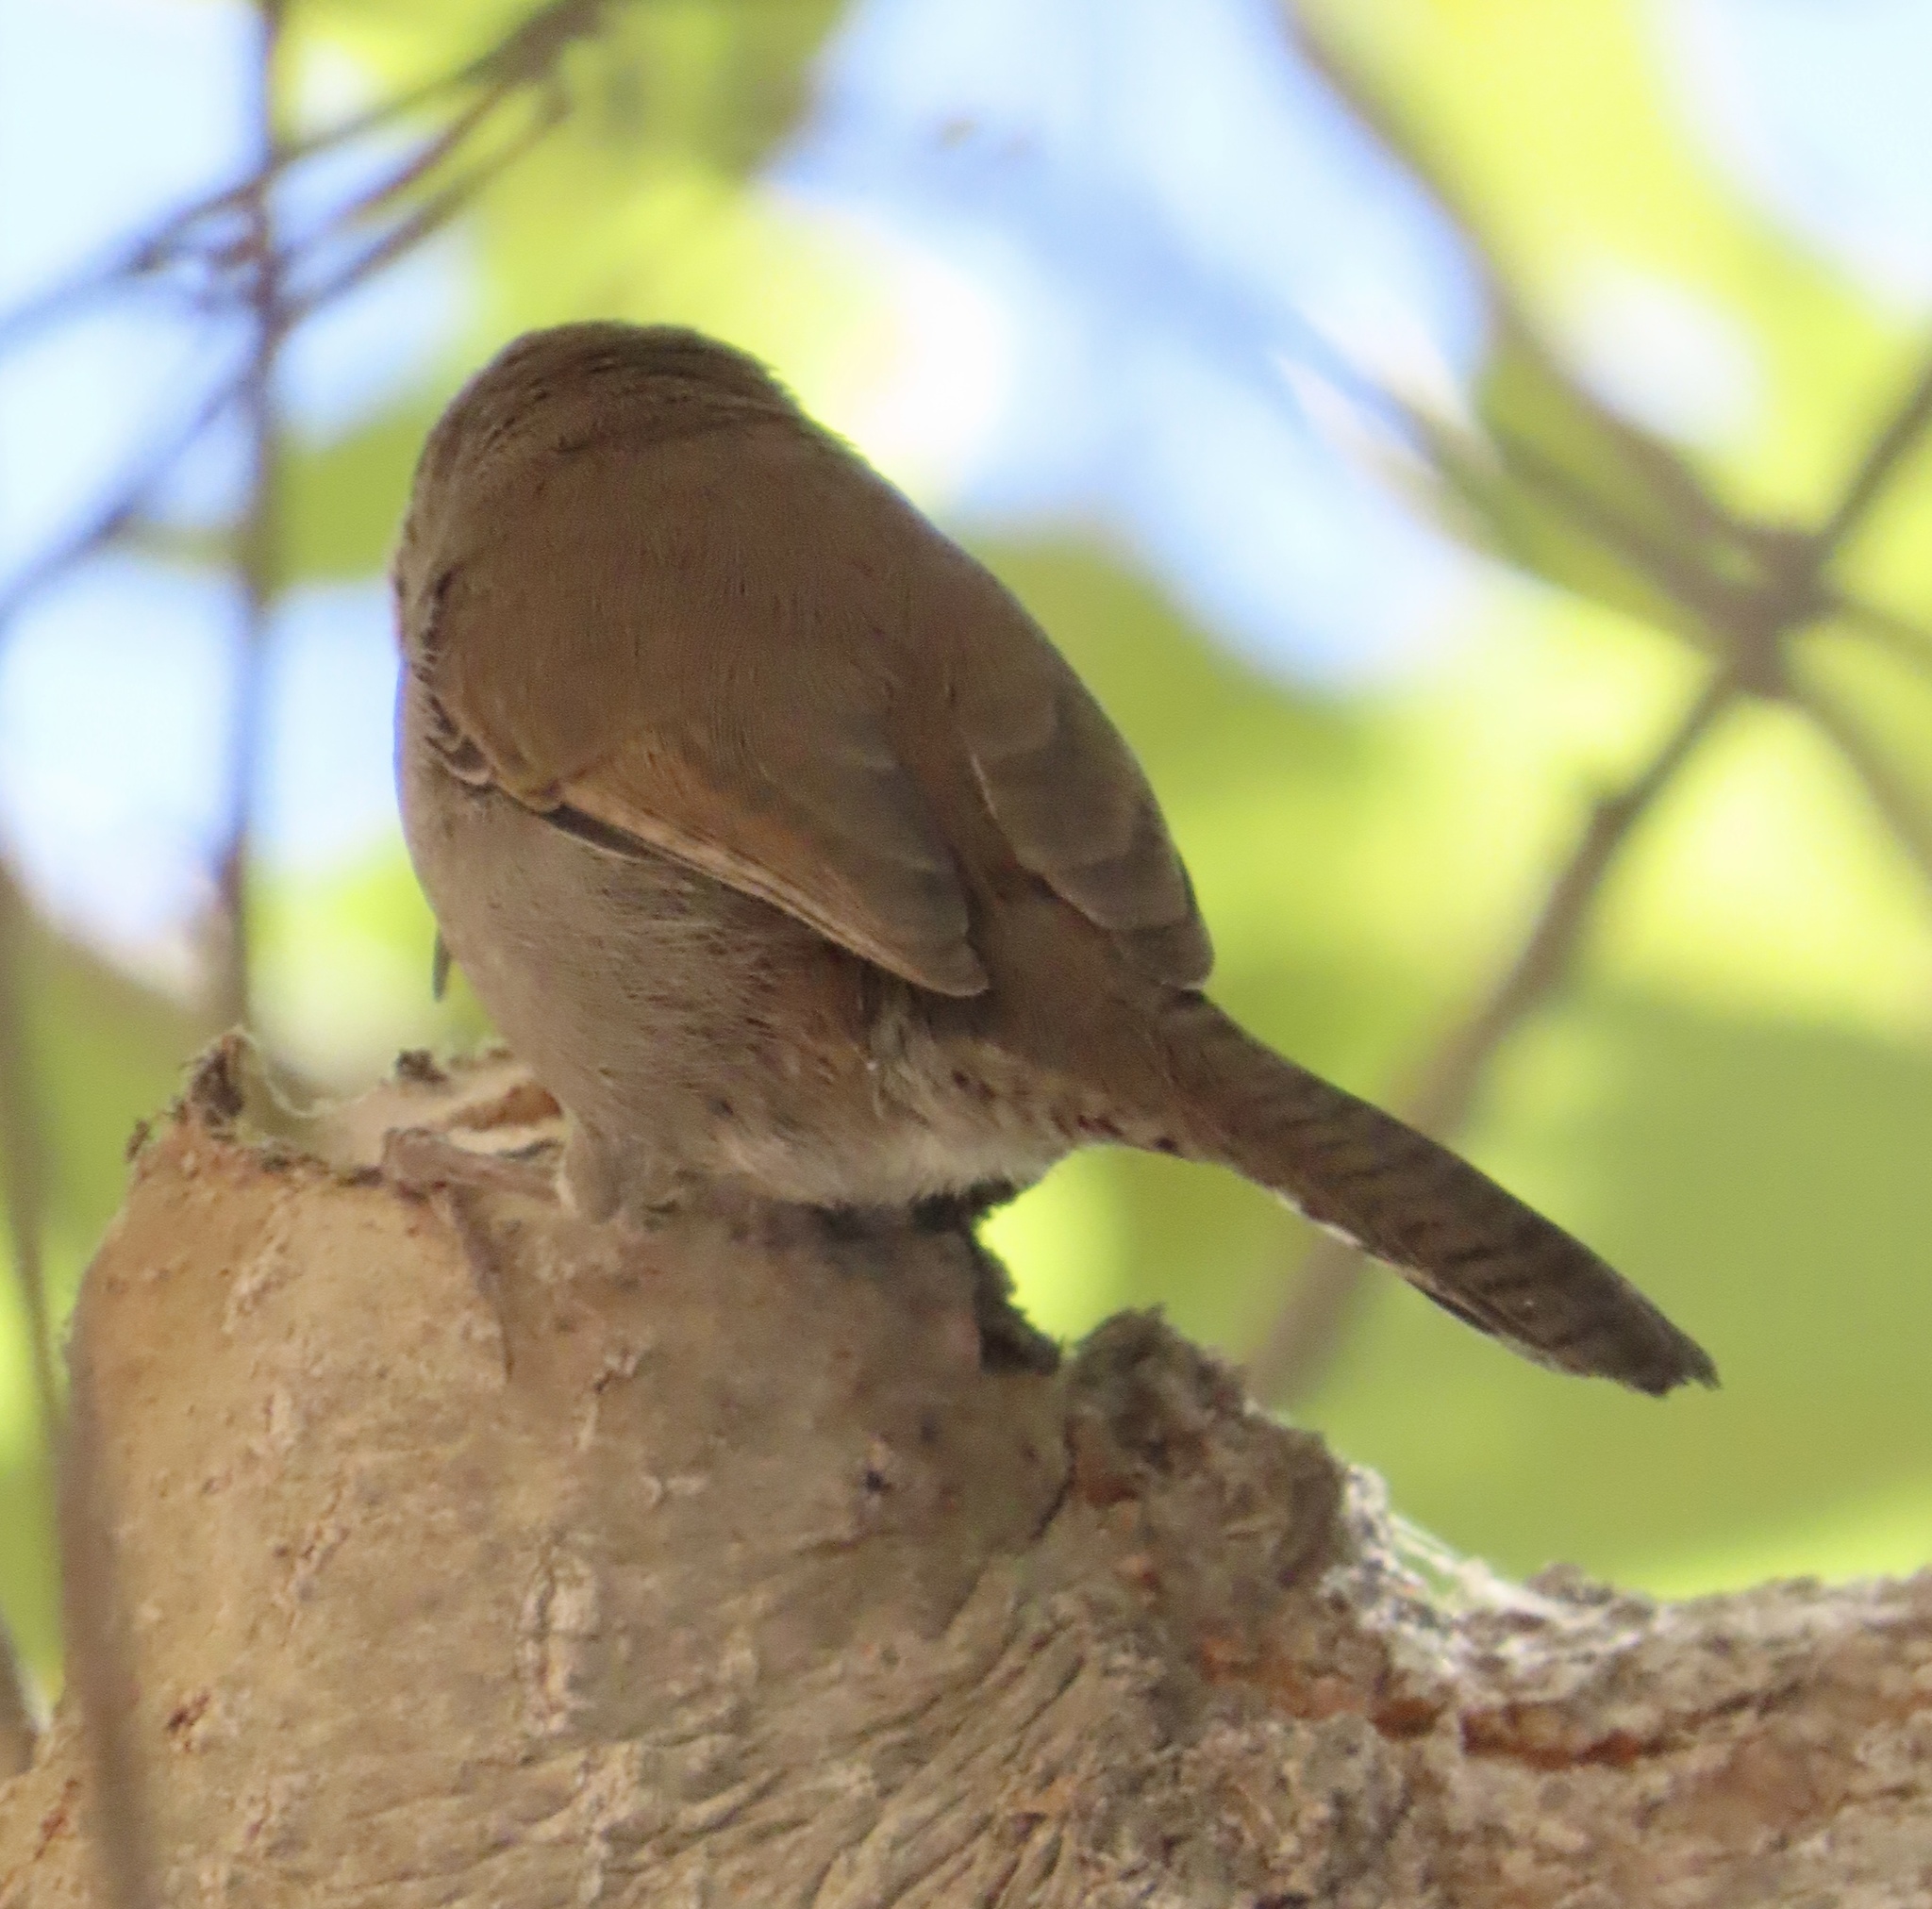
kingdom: Animalia
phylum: Chordata
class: Aves
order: Passeriformes
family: Troglodytidae
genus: Thryomanes
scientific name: Thryomanes bewickii
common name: Bewick's wren
